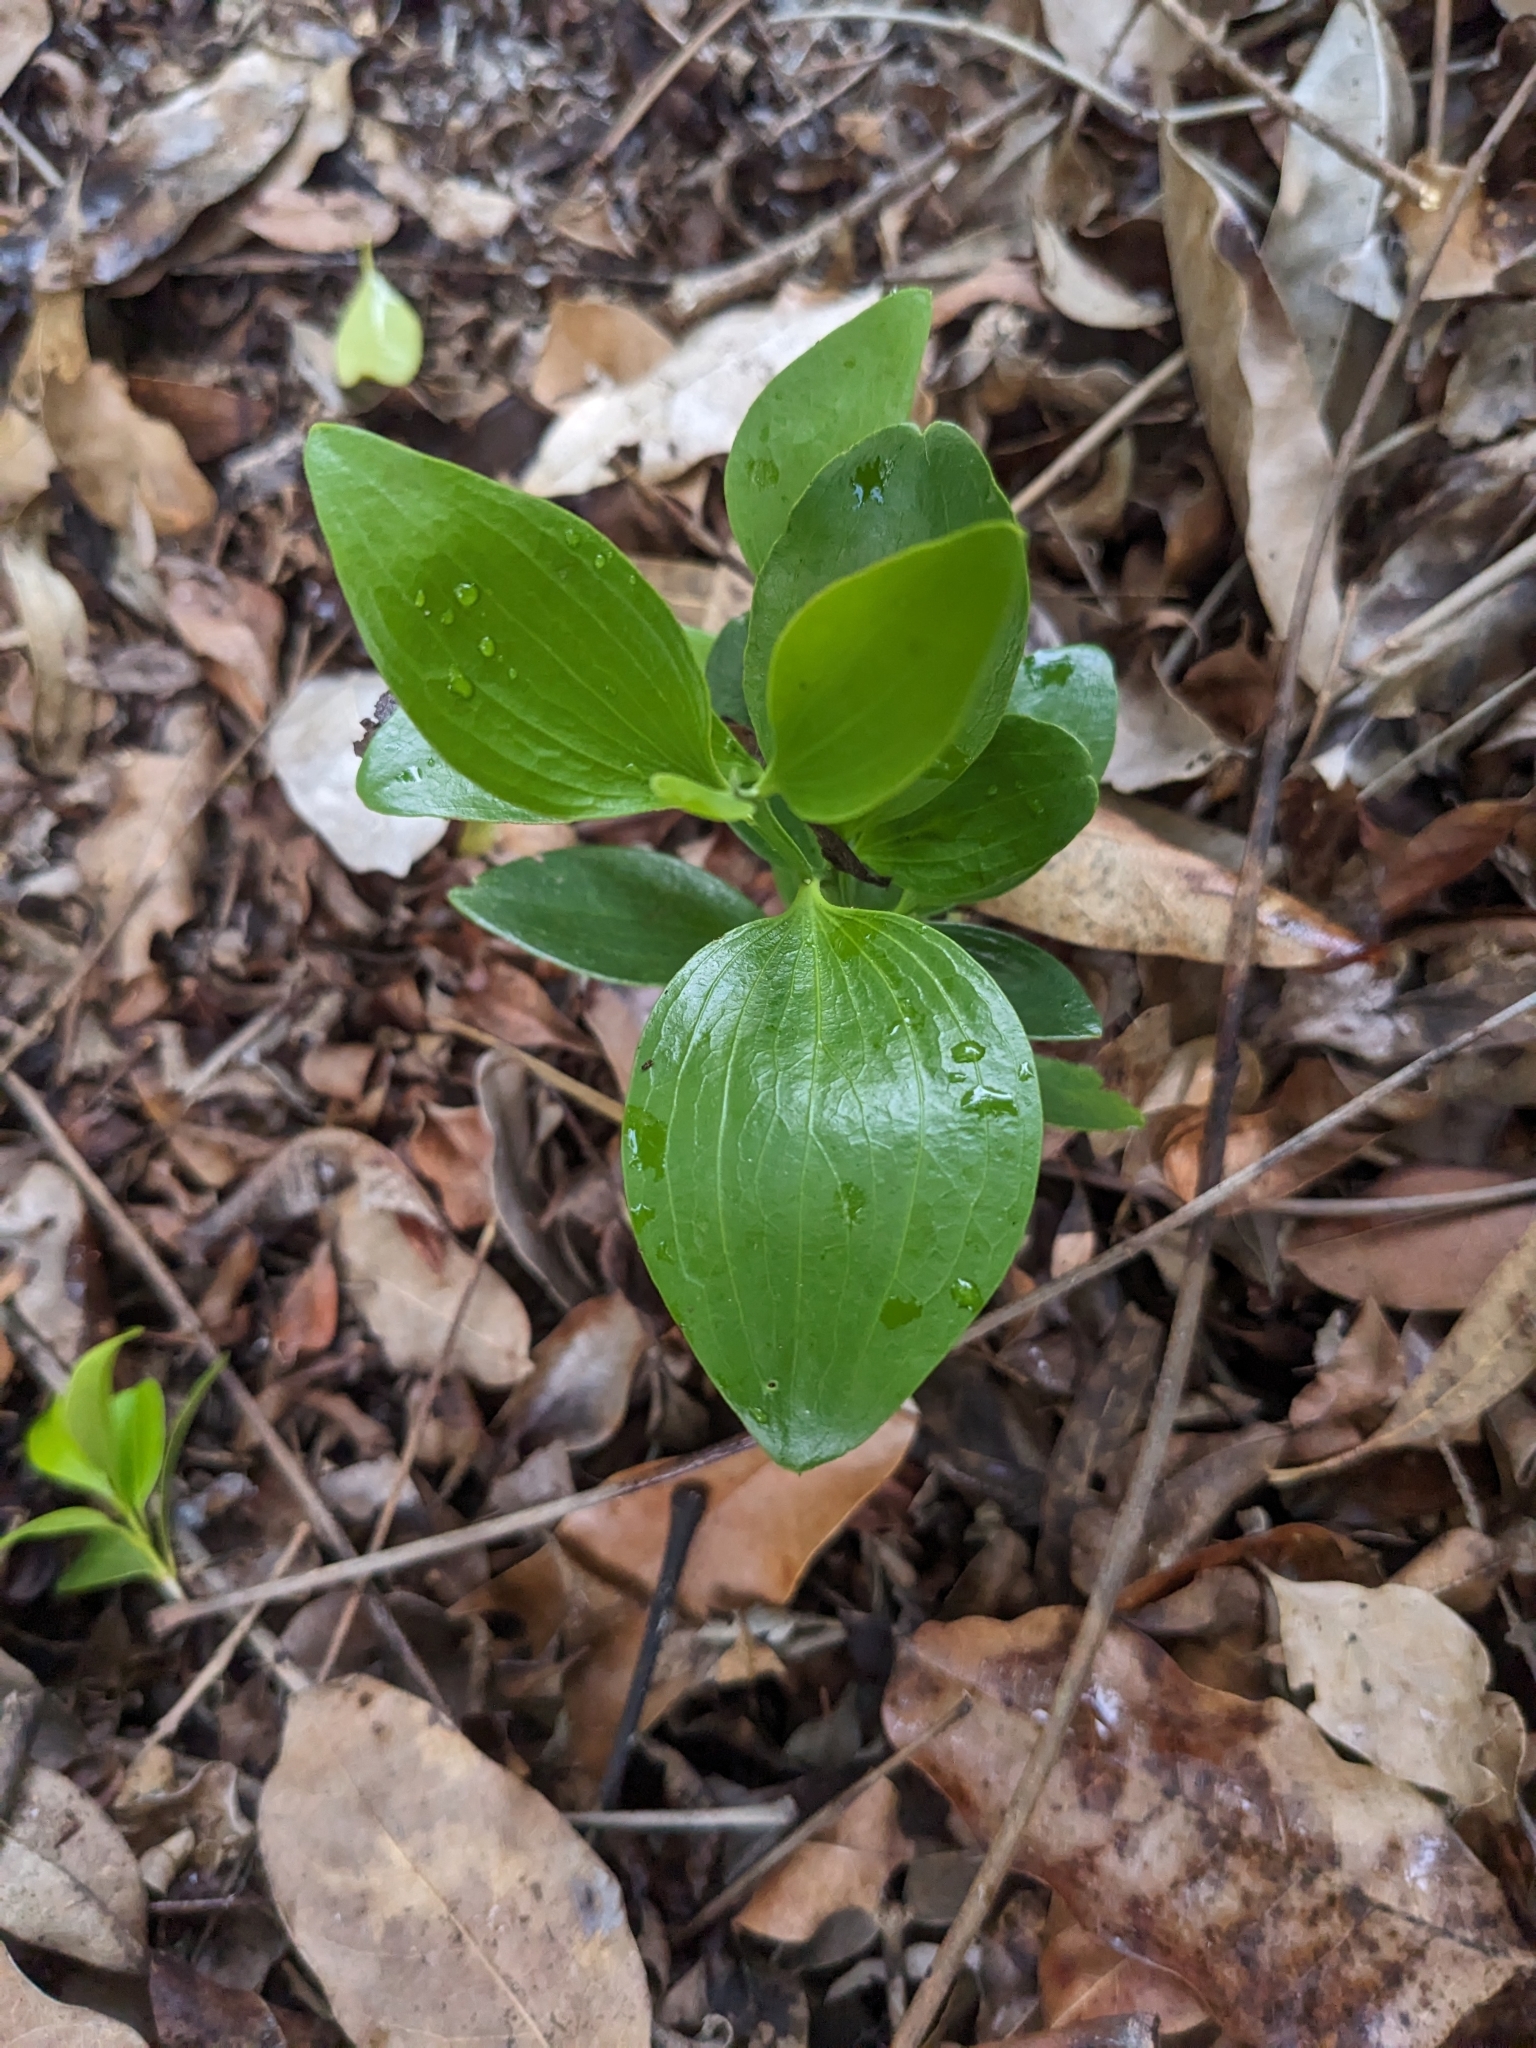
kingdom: Plantae
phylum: Tracheophyta
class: Magnoliopsida
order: Santalales
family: Santalaceae
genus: Exocarpos
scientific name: Exocarpos latifolius
